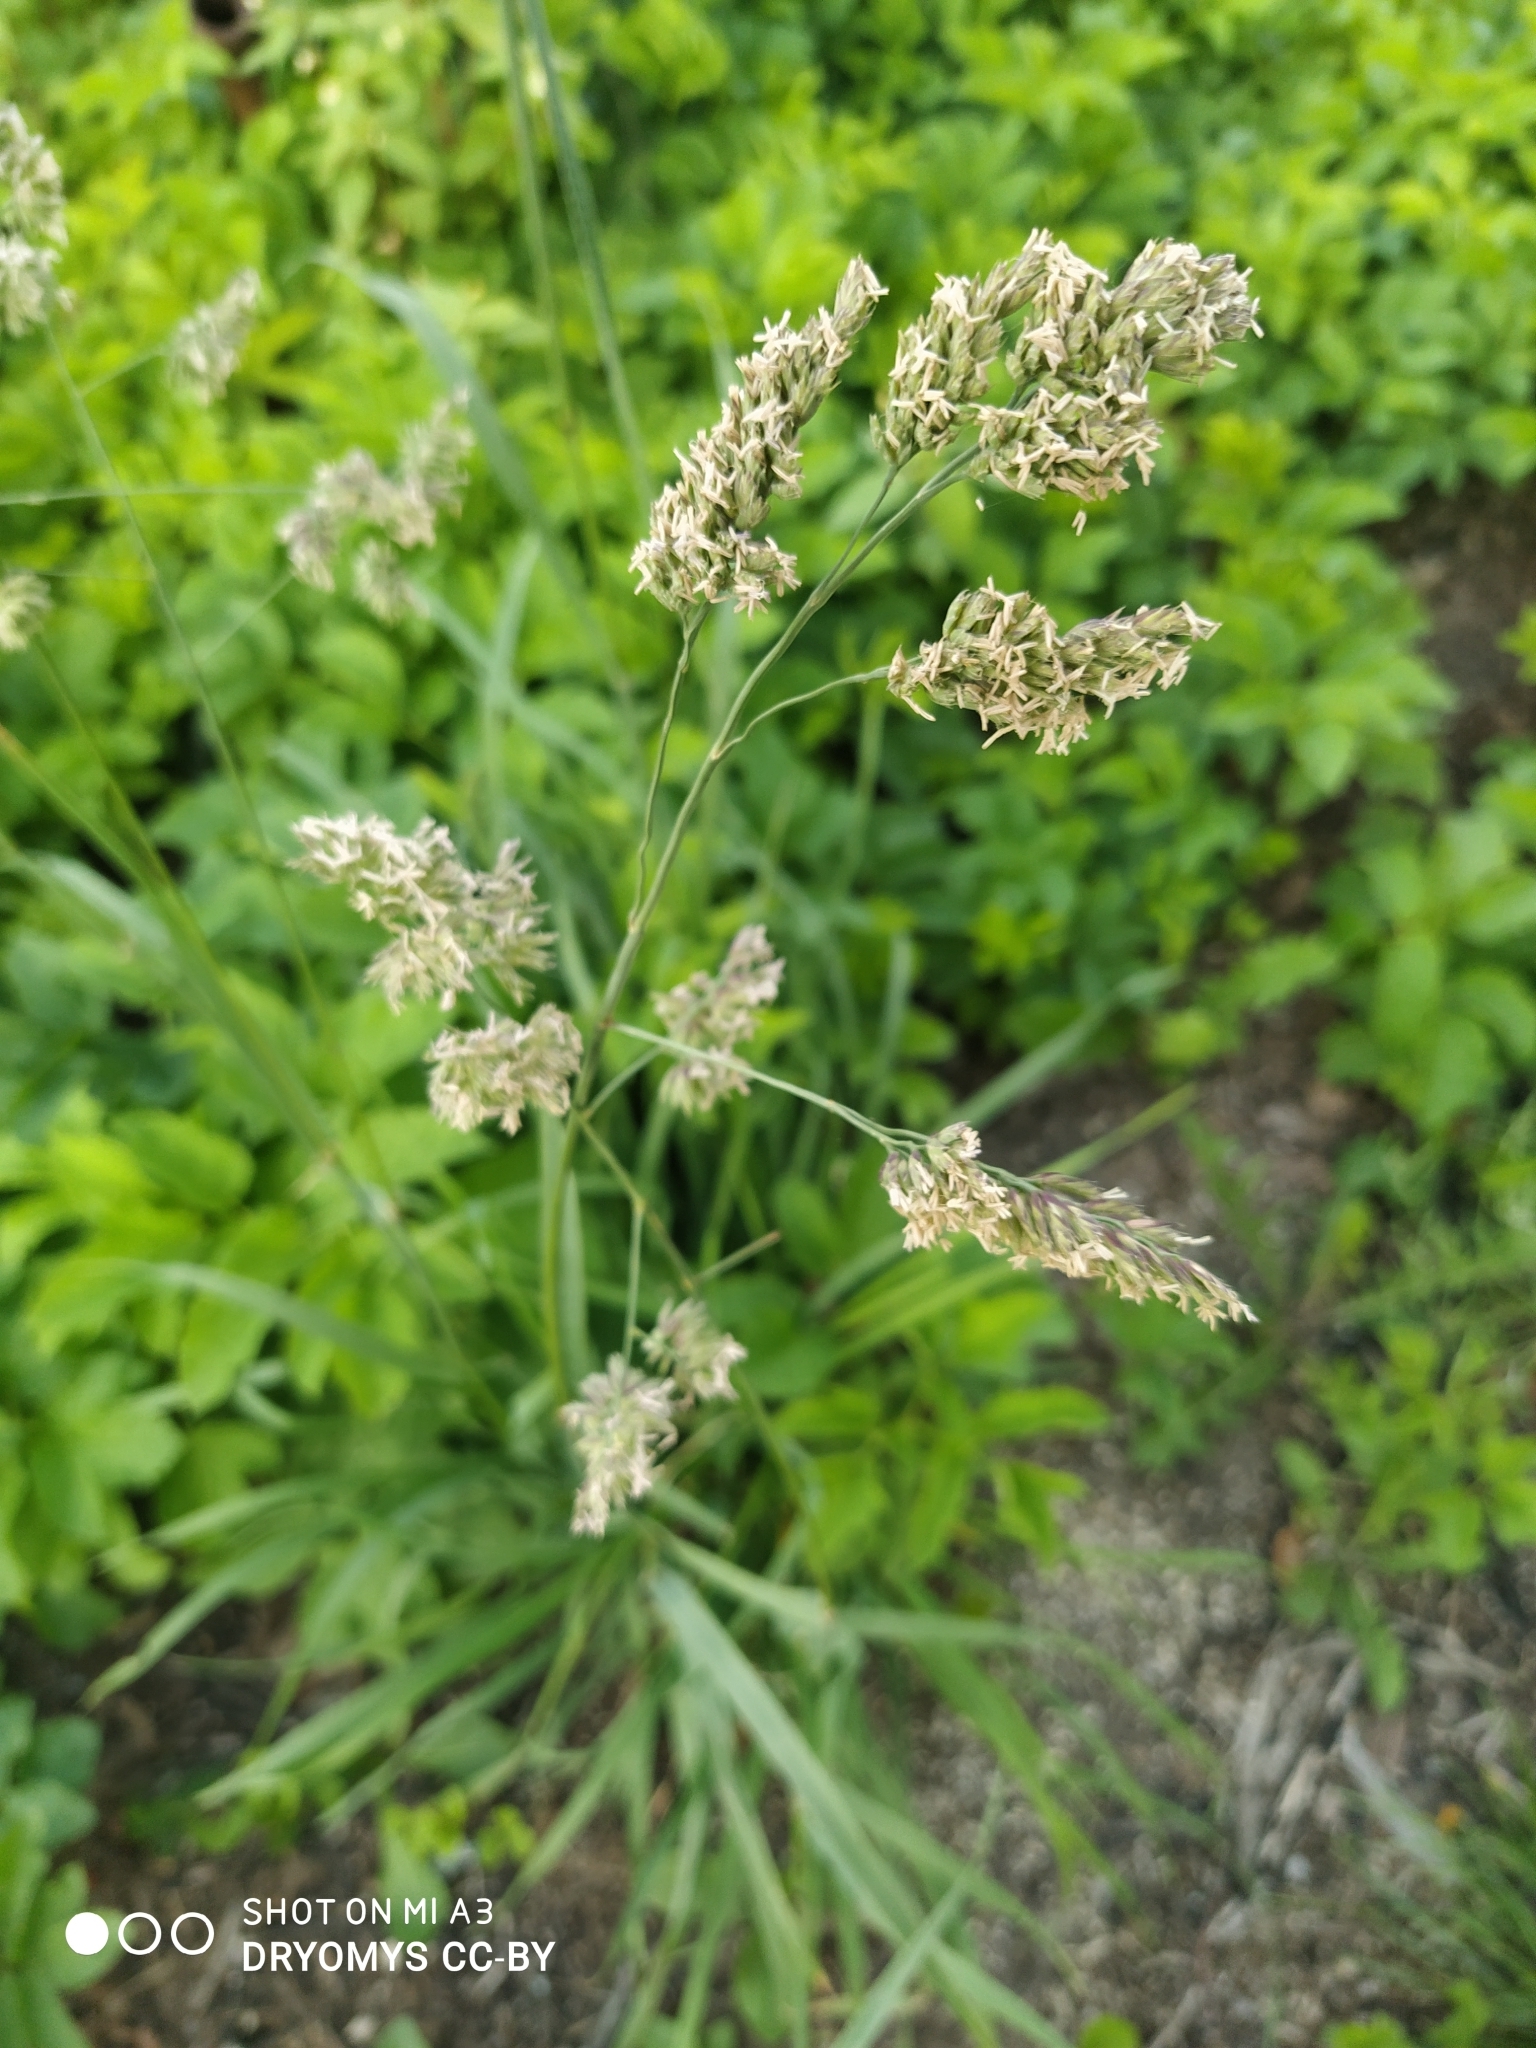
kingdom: Plantae
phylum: Tracheophyta
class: Liliopsida
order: Poales
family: Poaceae
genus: Dactylis
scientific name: Dactylis glomerata
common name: Orchardgrass
